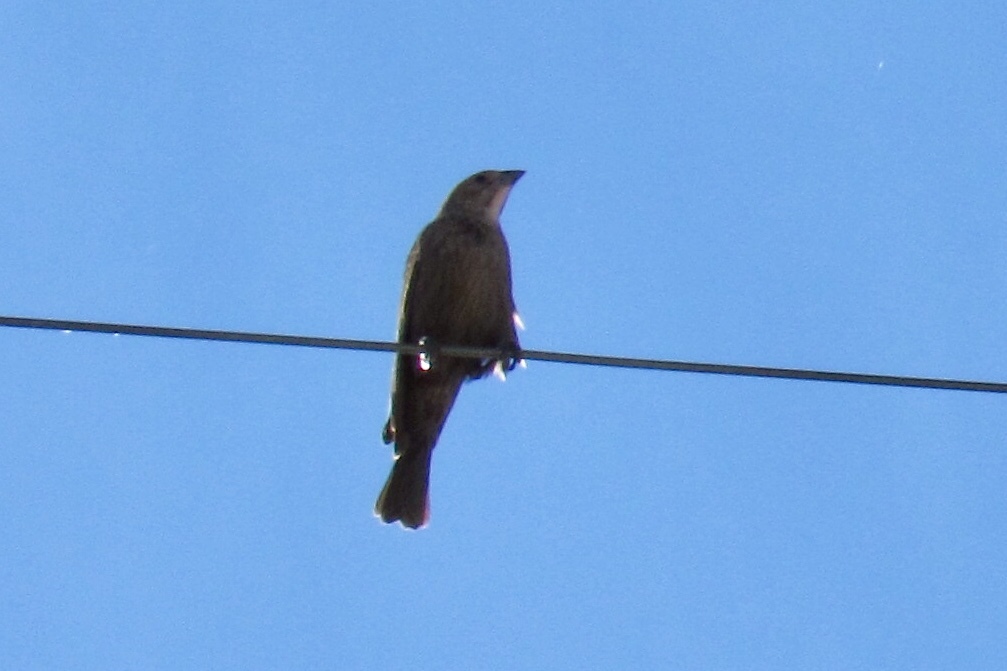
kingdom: Animalia
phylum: Chordata
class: Aves
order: Passeriformes
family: Icteridae
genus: Molothrus
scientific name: Molothrus ater
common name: Brown-headed cowbird
